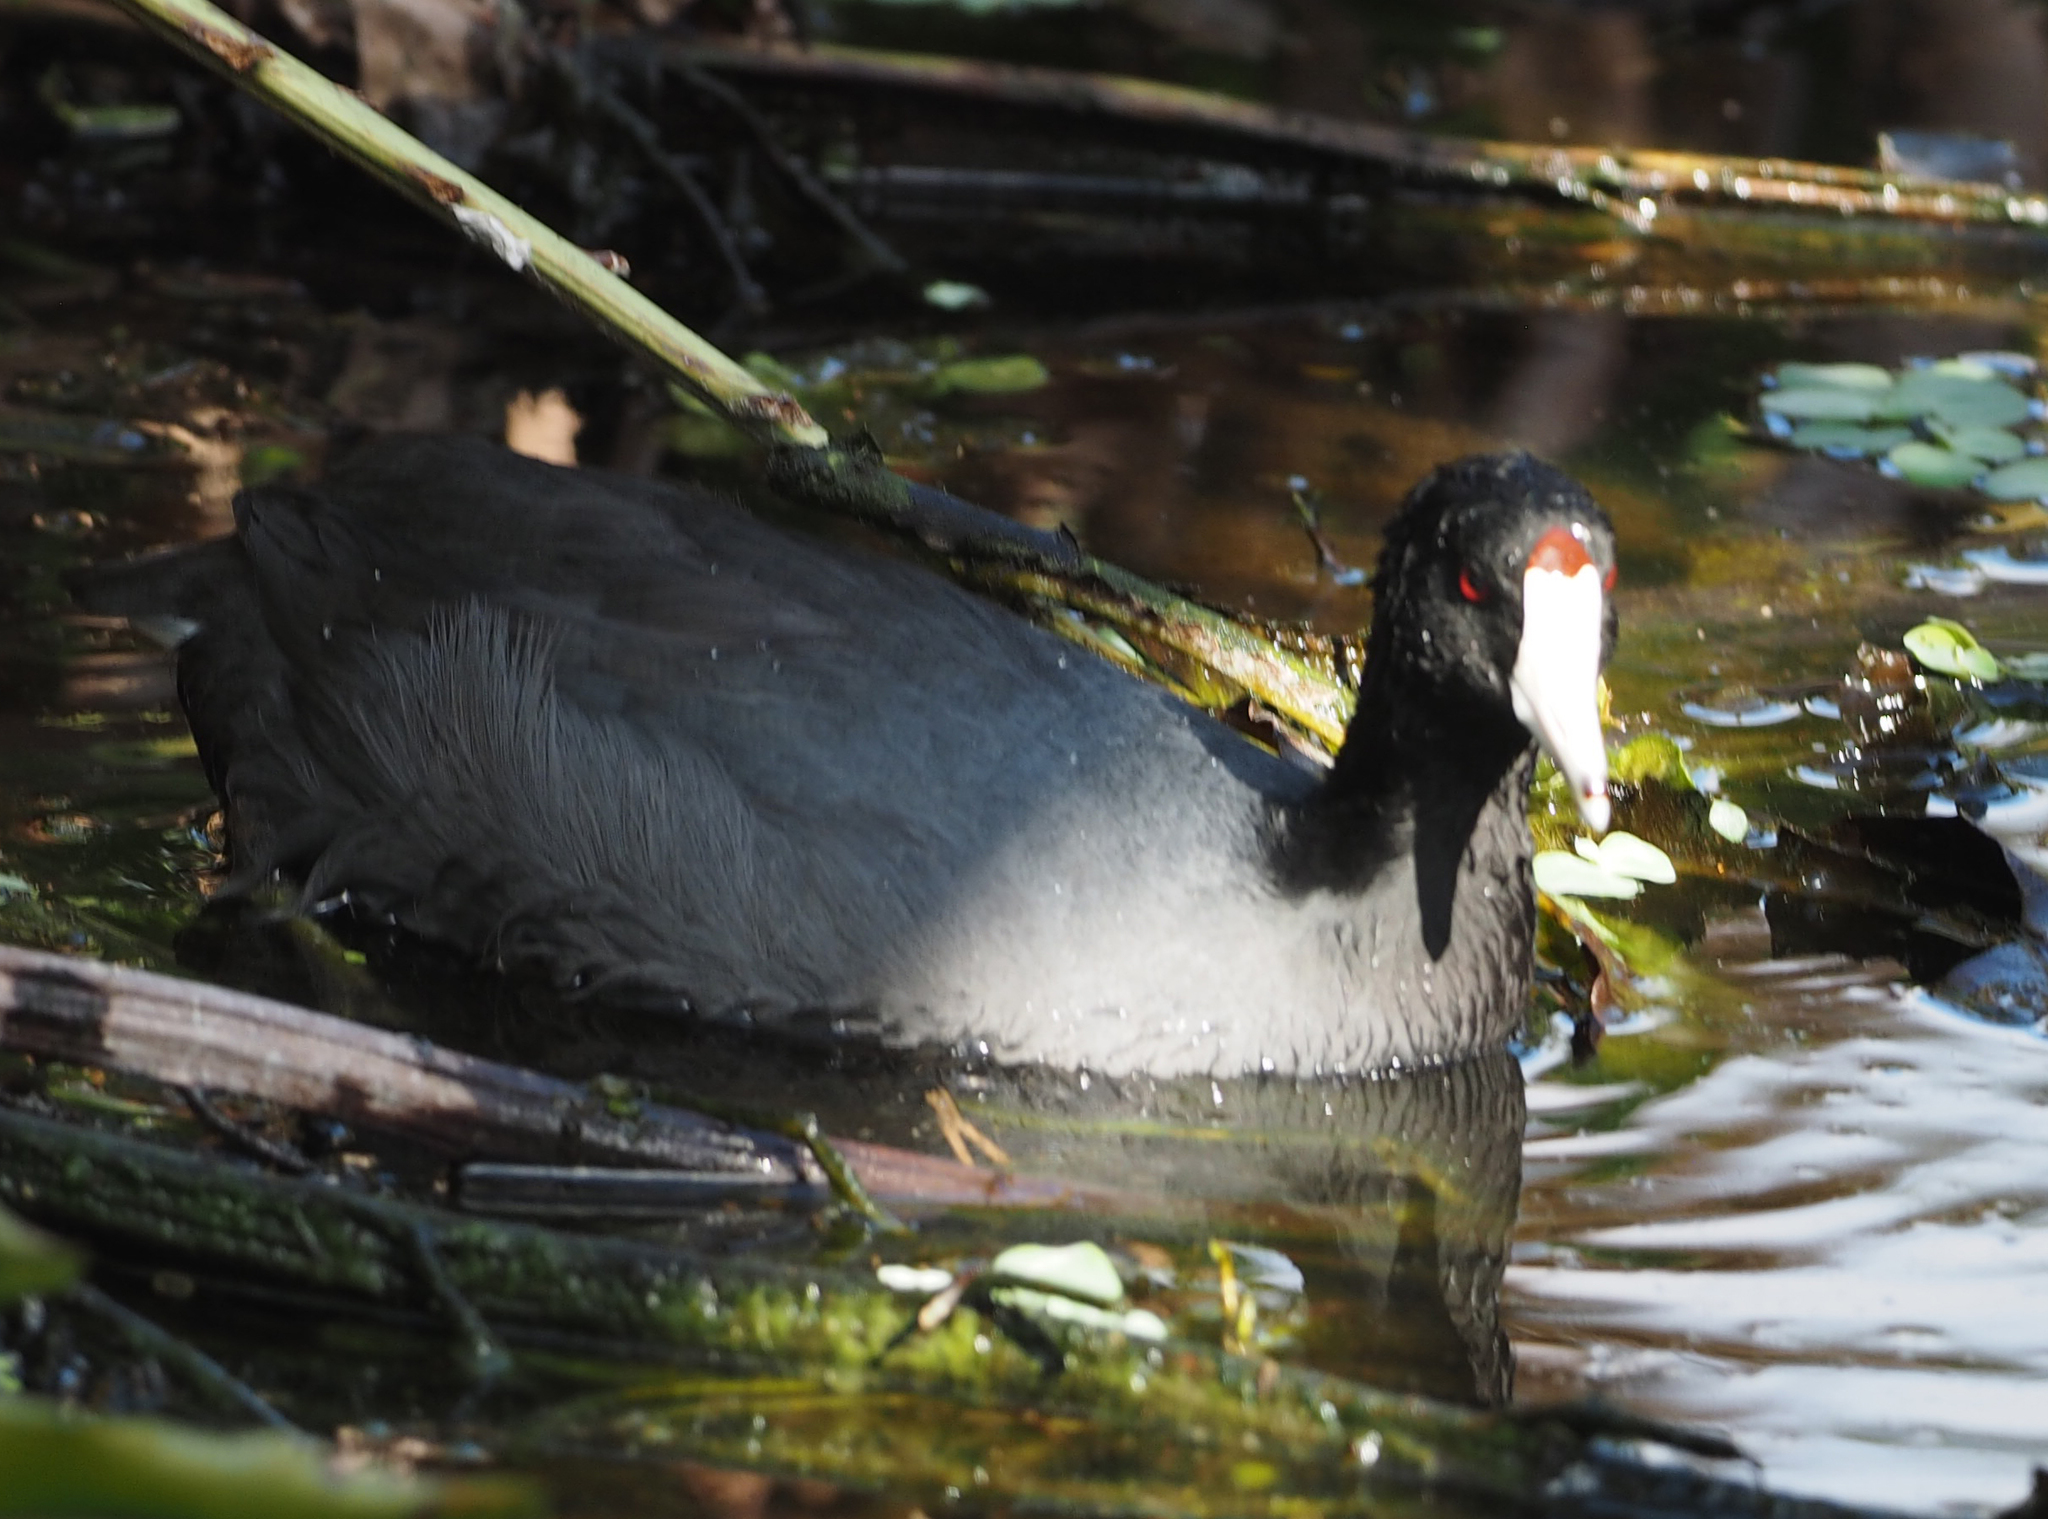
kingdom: Animalia
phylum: Chordata
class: Aves
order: Gruiformes
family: Rallidae
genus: Fulica
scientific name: Fulica americana
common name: American coot
